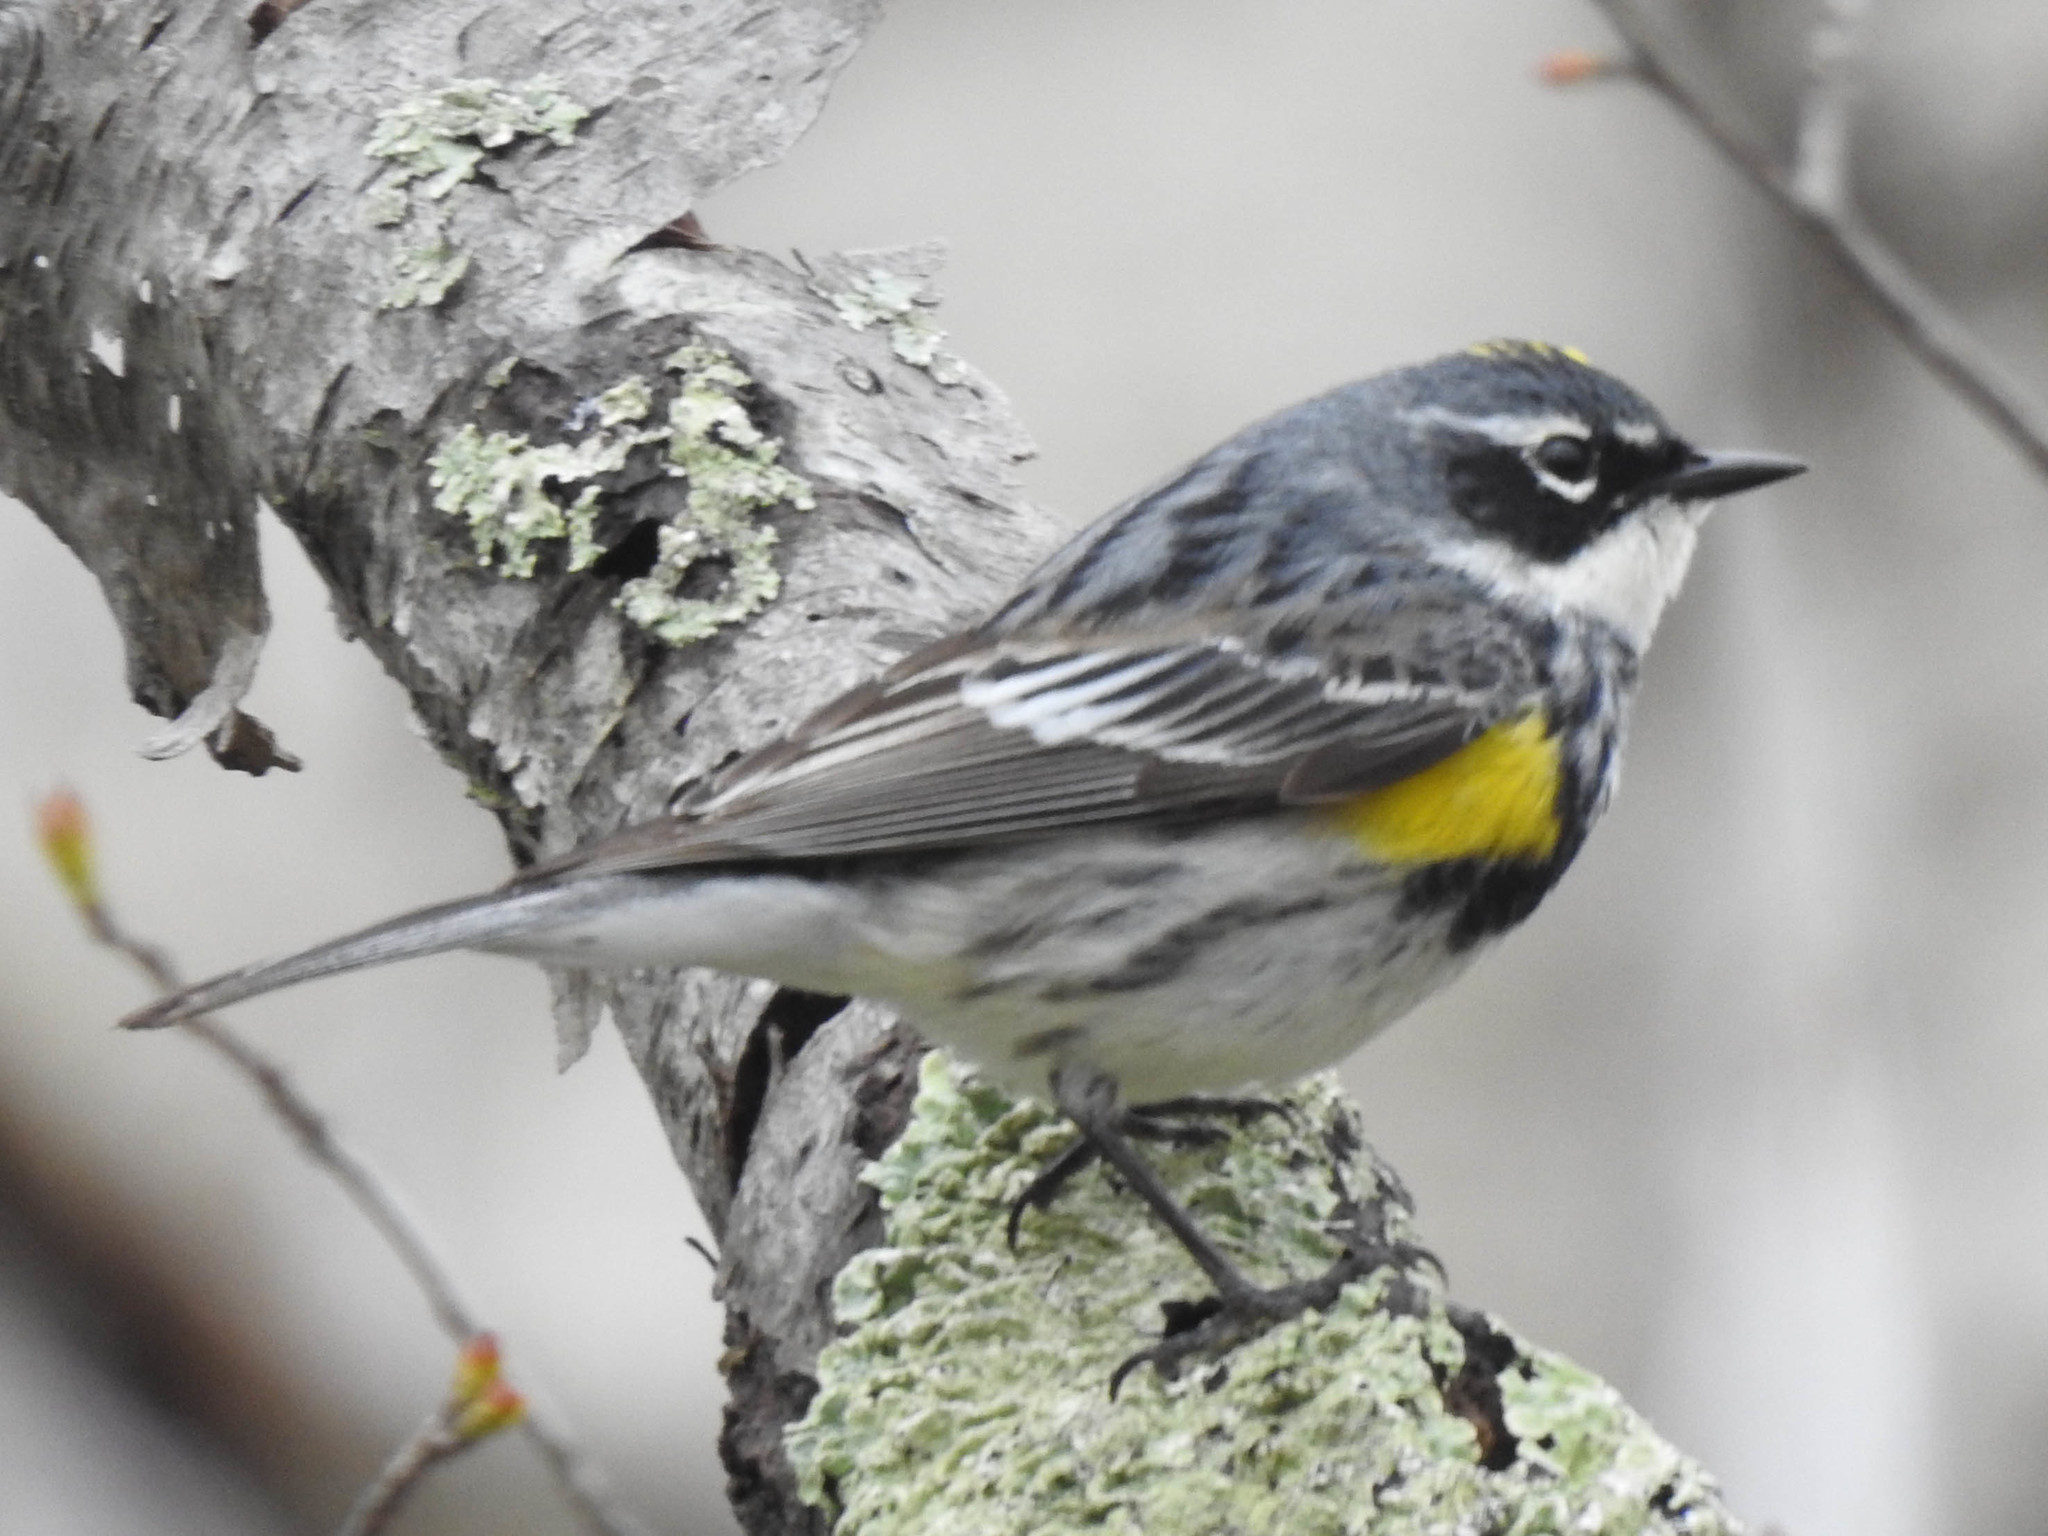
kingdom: Animalia
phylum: Chordata
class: Aves
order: Passeriformes
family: Parulidae
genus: Setophaga
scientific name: Setophaga coronata
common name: Myrtle warbler
